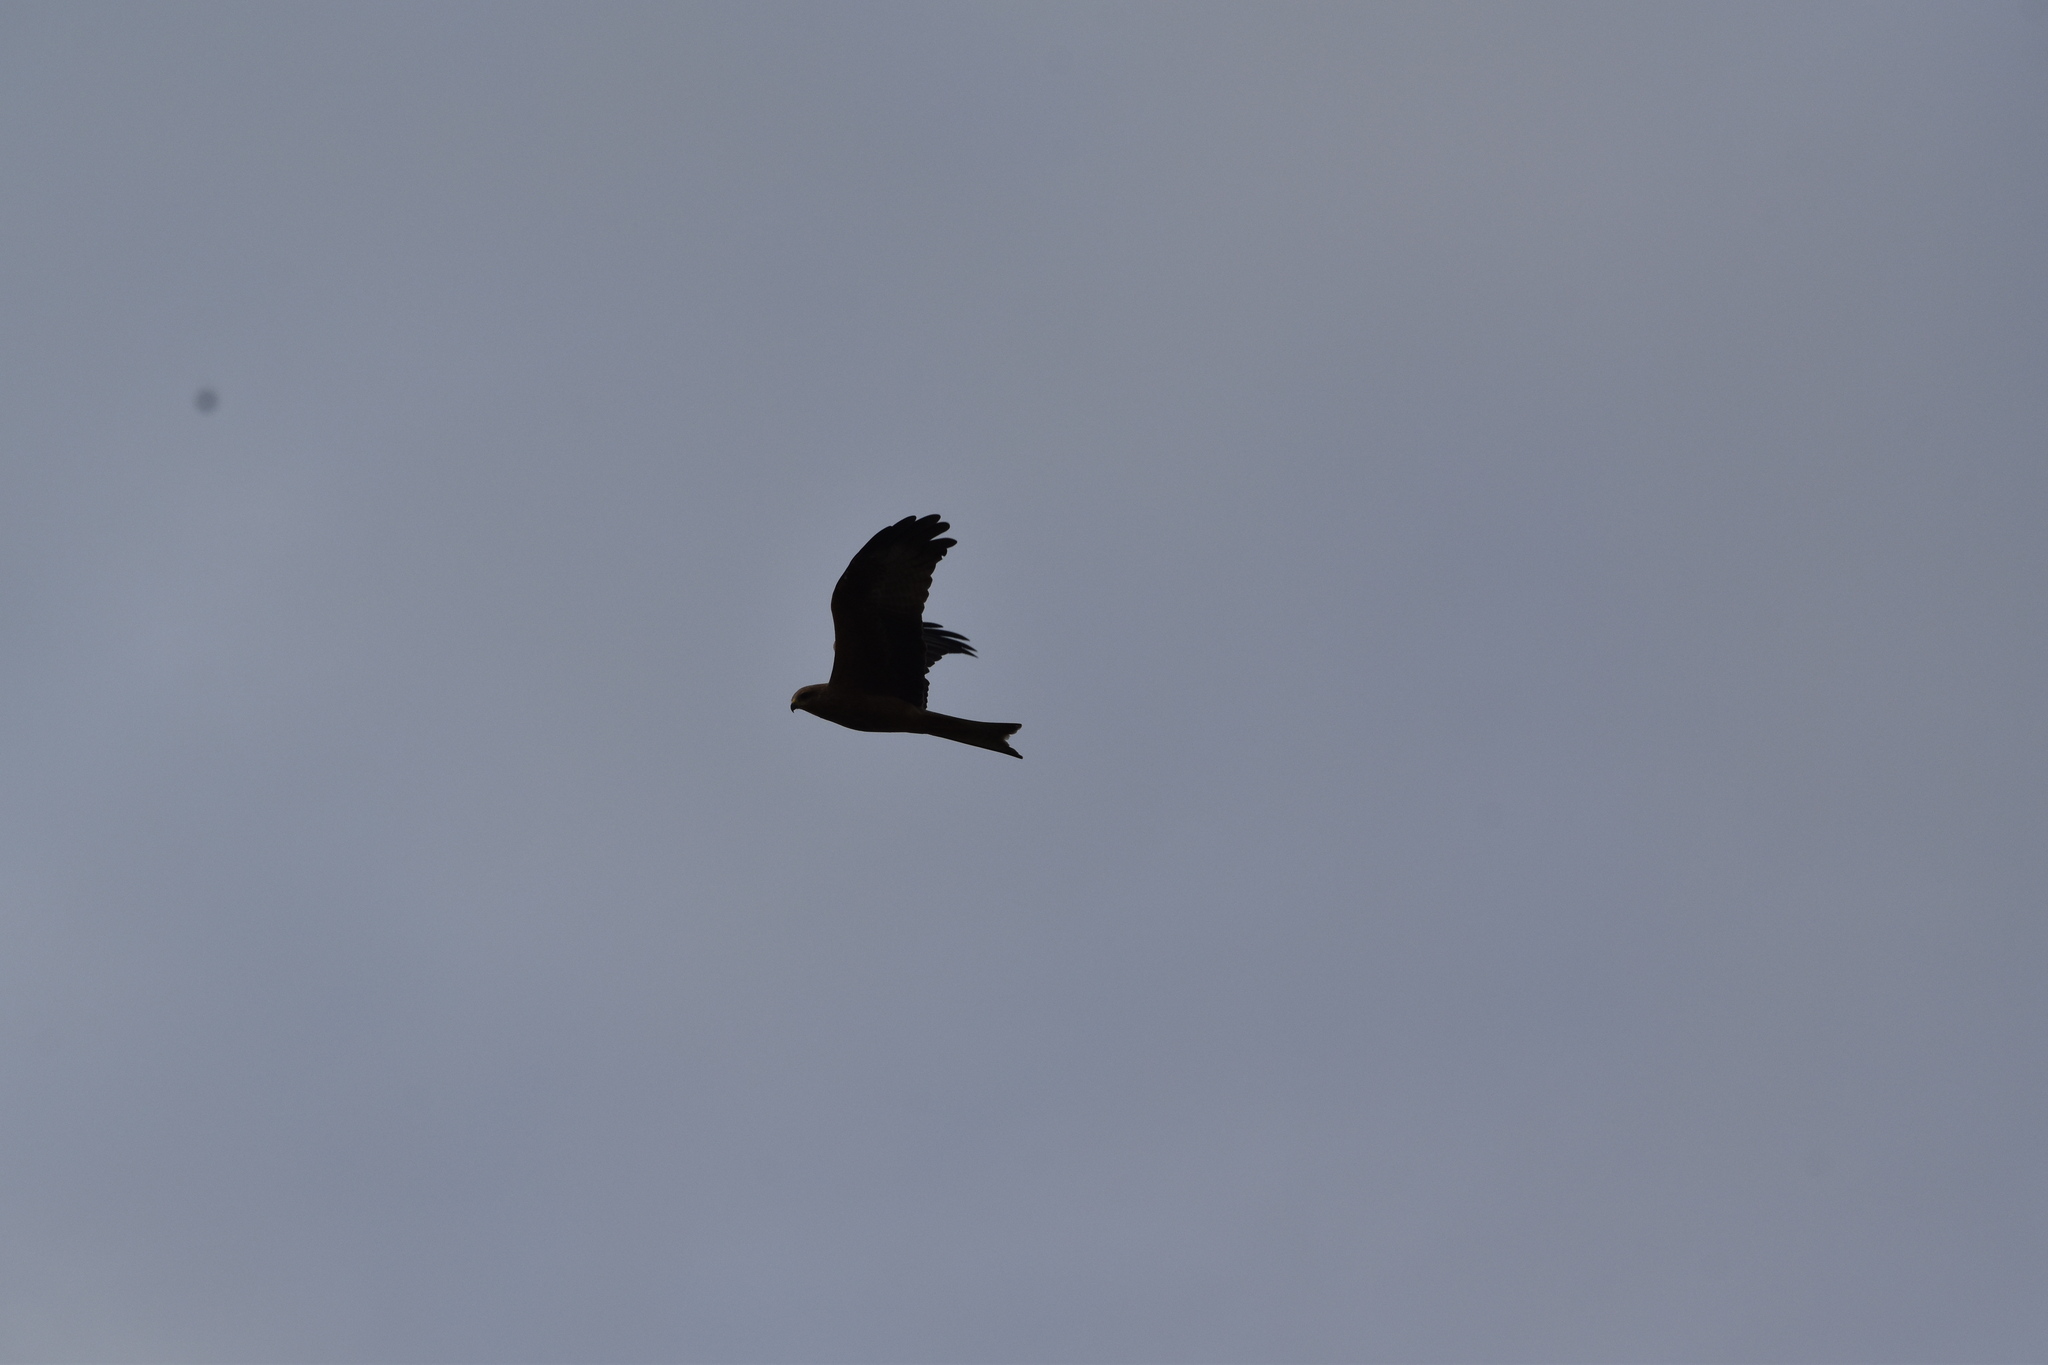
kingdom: Animalia
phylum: Chordata
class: Aves
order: Accipitriformes
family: Accipitridae
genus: Milvus
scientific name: Milvus migrans
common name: Black kite
